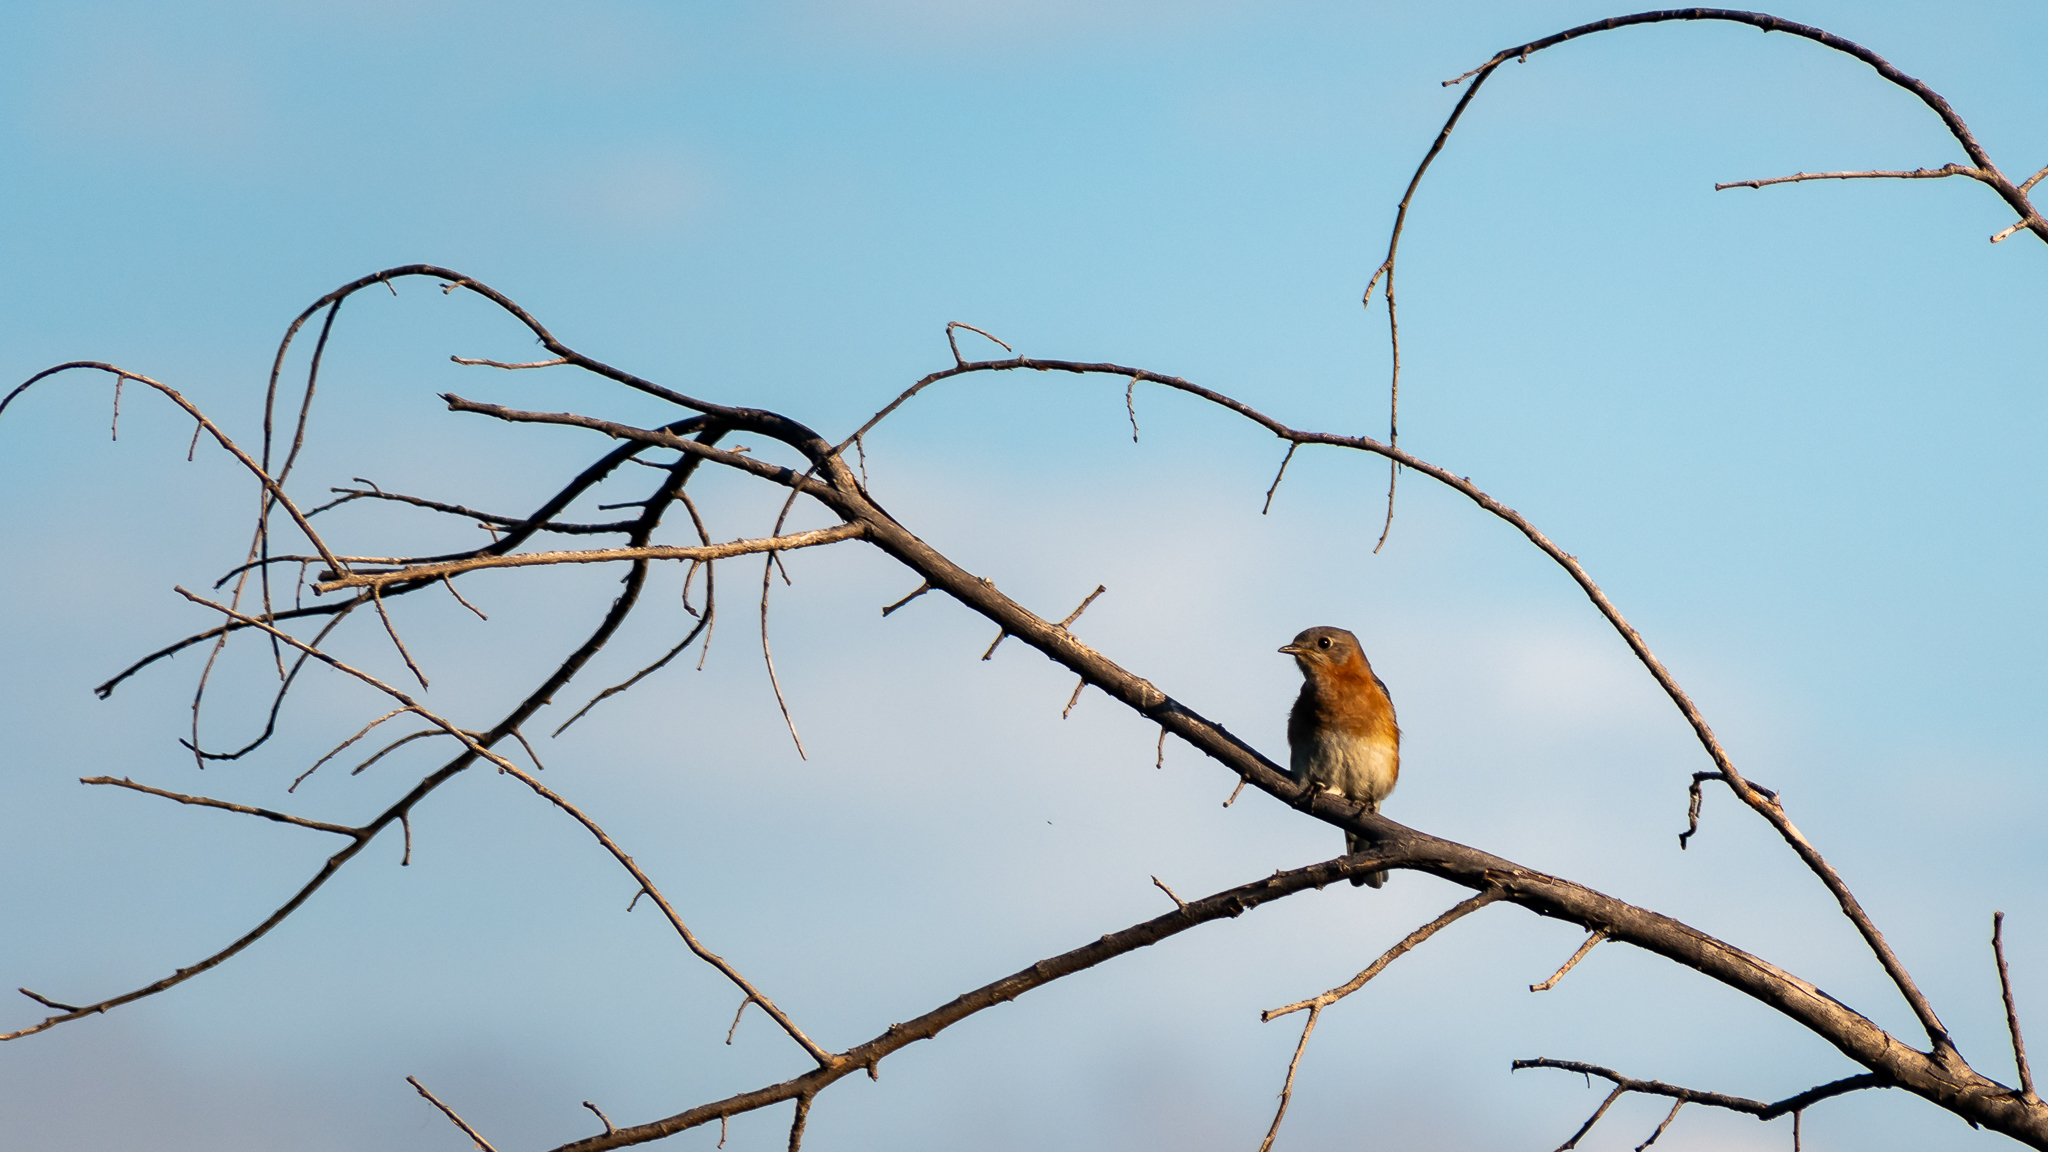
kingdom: Animalia
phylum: Chordata
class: Aves
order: Passeriformes
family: Turdidae
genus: Sialia
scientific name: Sialia sialis
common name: Eastern bluebird
